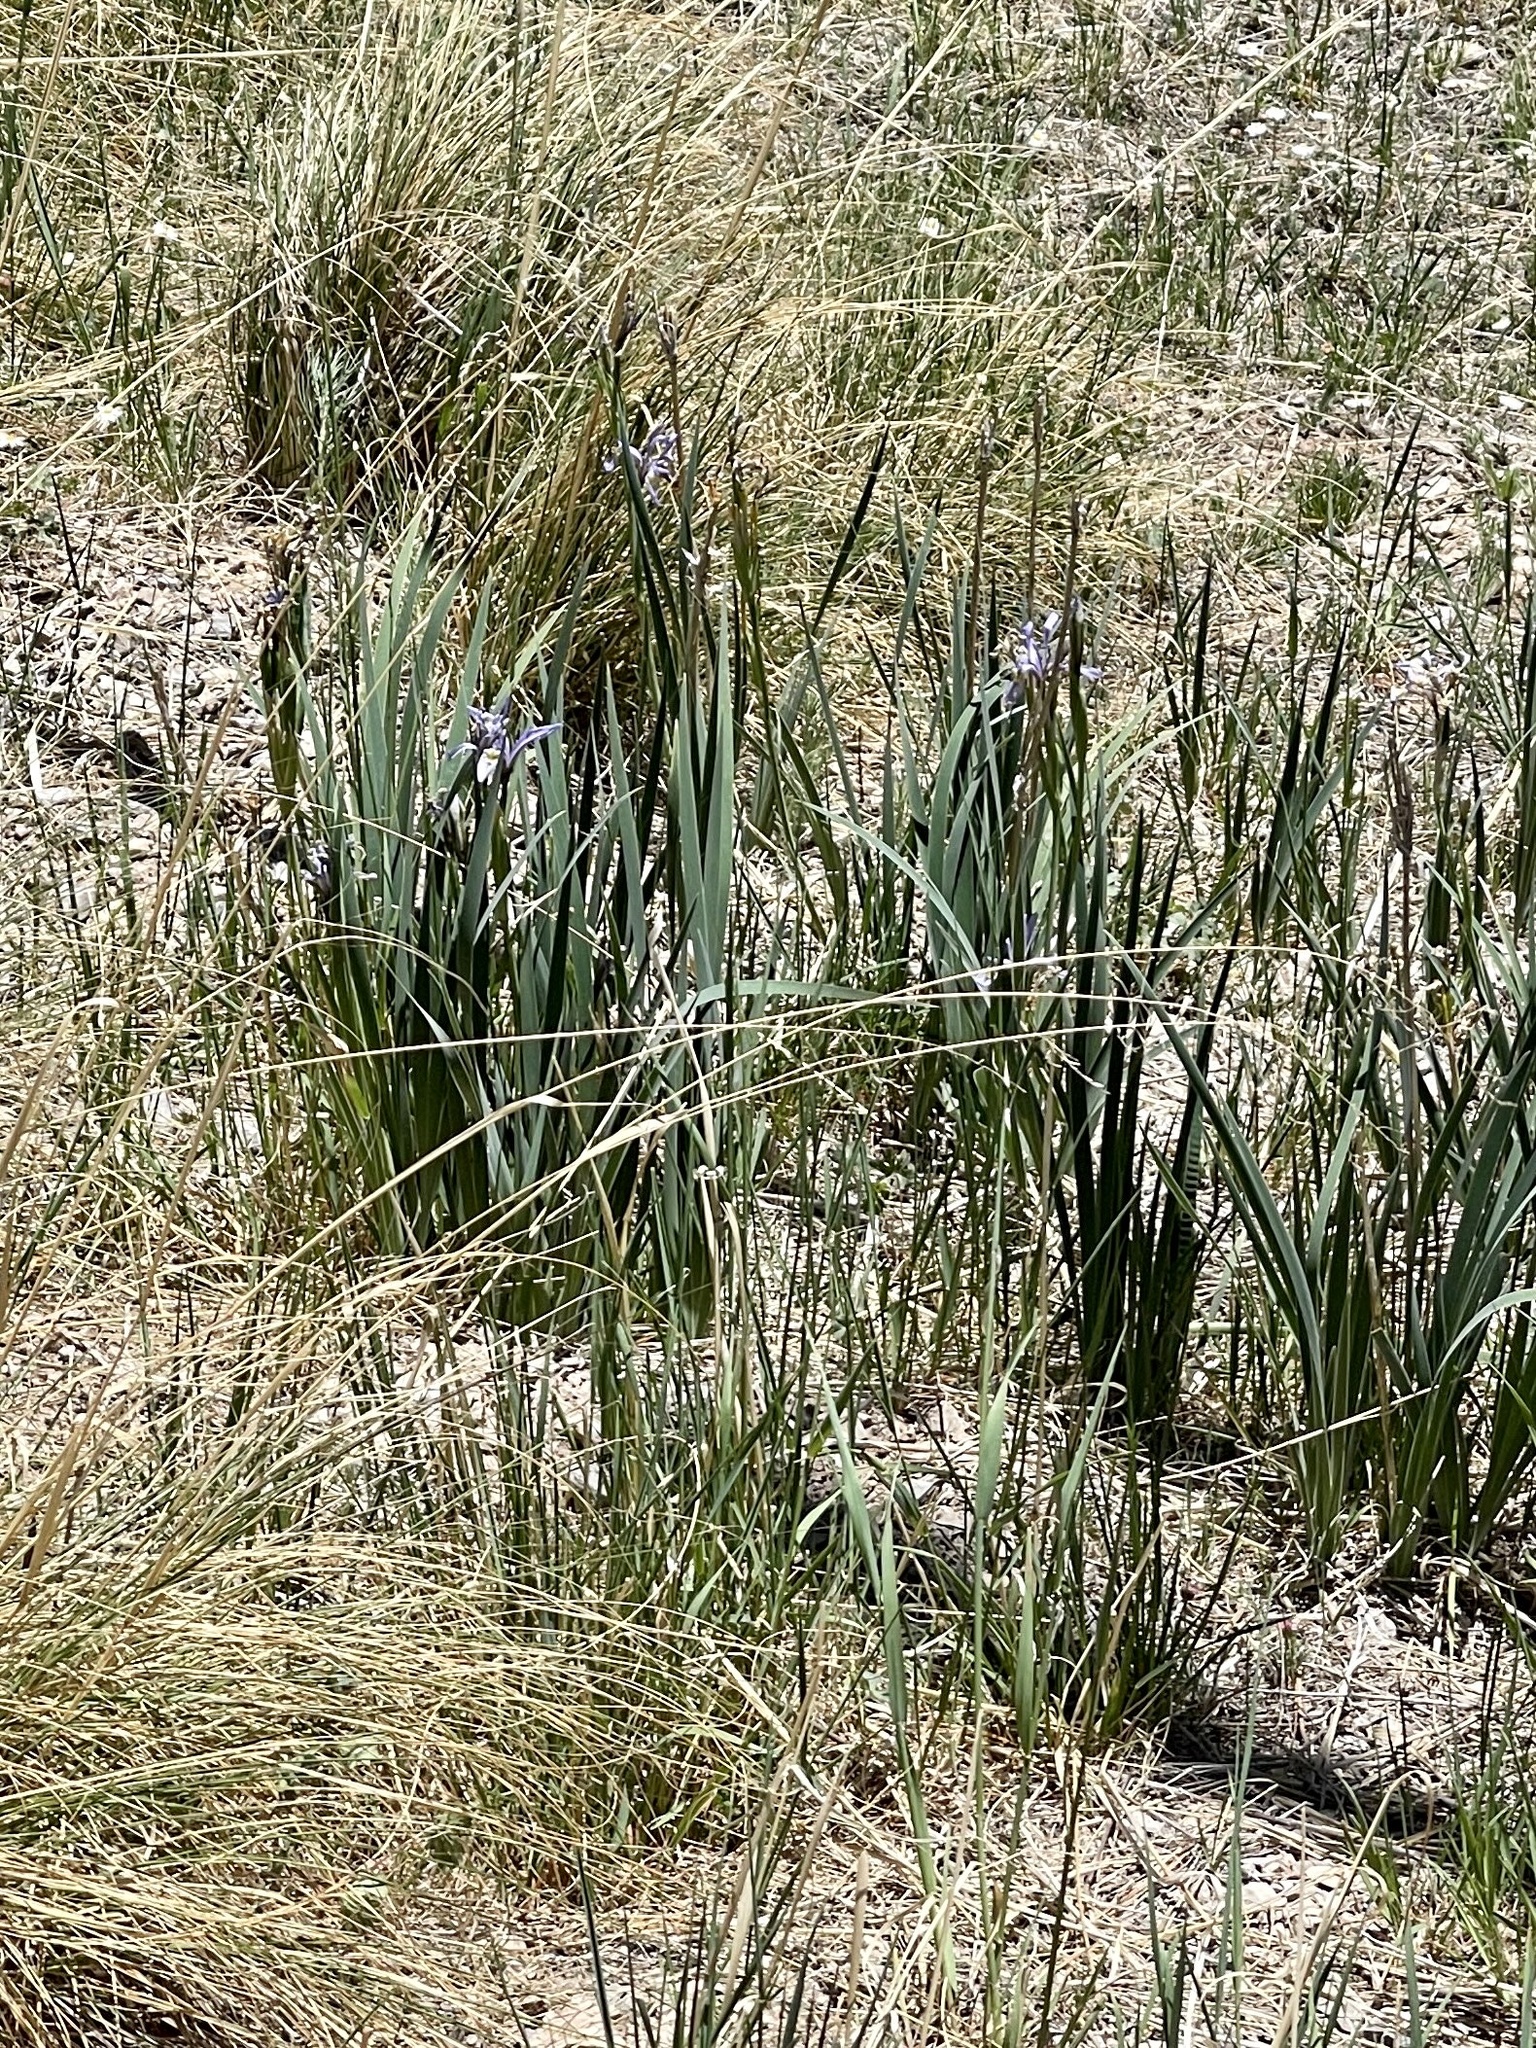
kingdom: Plantae
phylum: Tracheophyta
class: Liliopsida
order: Asparagales
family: Iridaceae
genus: Iris
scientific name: Iris missouriensis
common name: Rocky mountain iris
